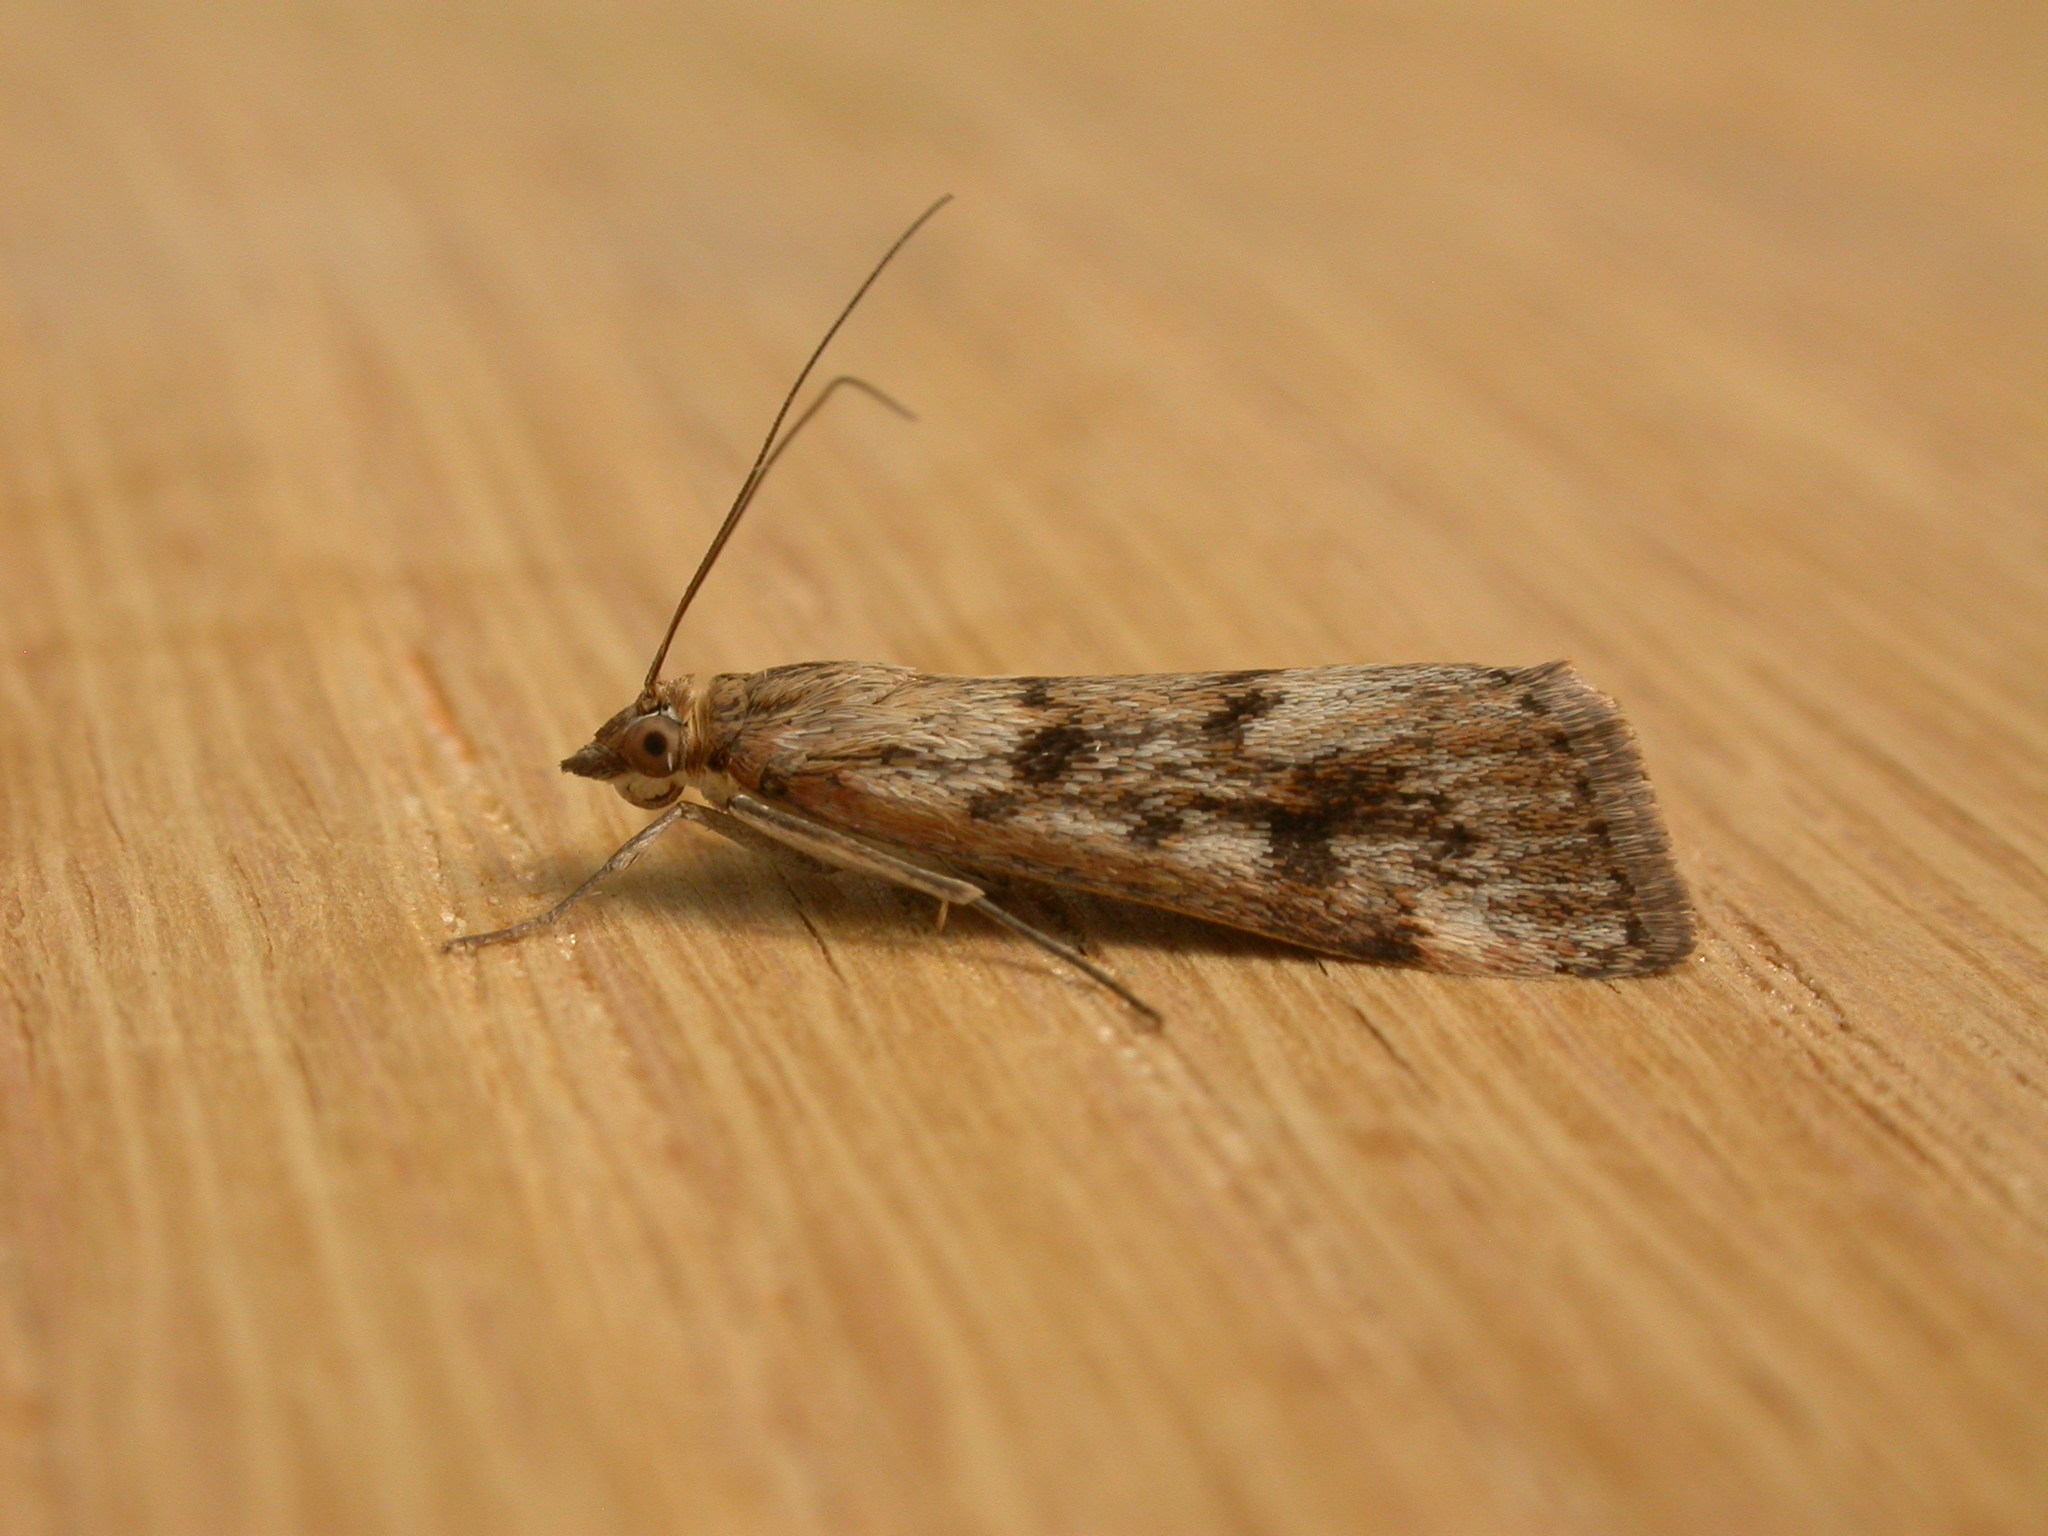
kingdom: Animalia
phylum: Arthropoda
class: Insecta
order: Lepidoptera
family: Crambidae
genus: Achyra
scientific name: Achyra affinitalis
